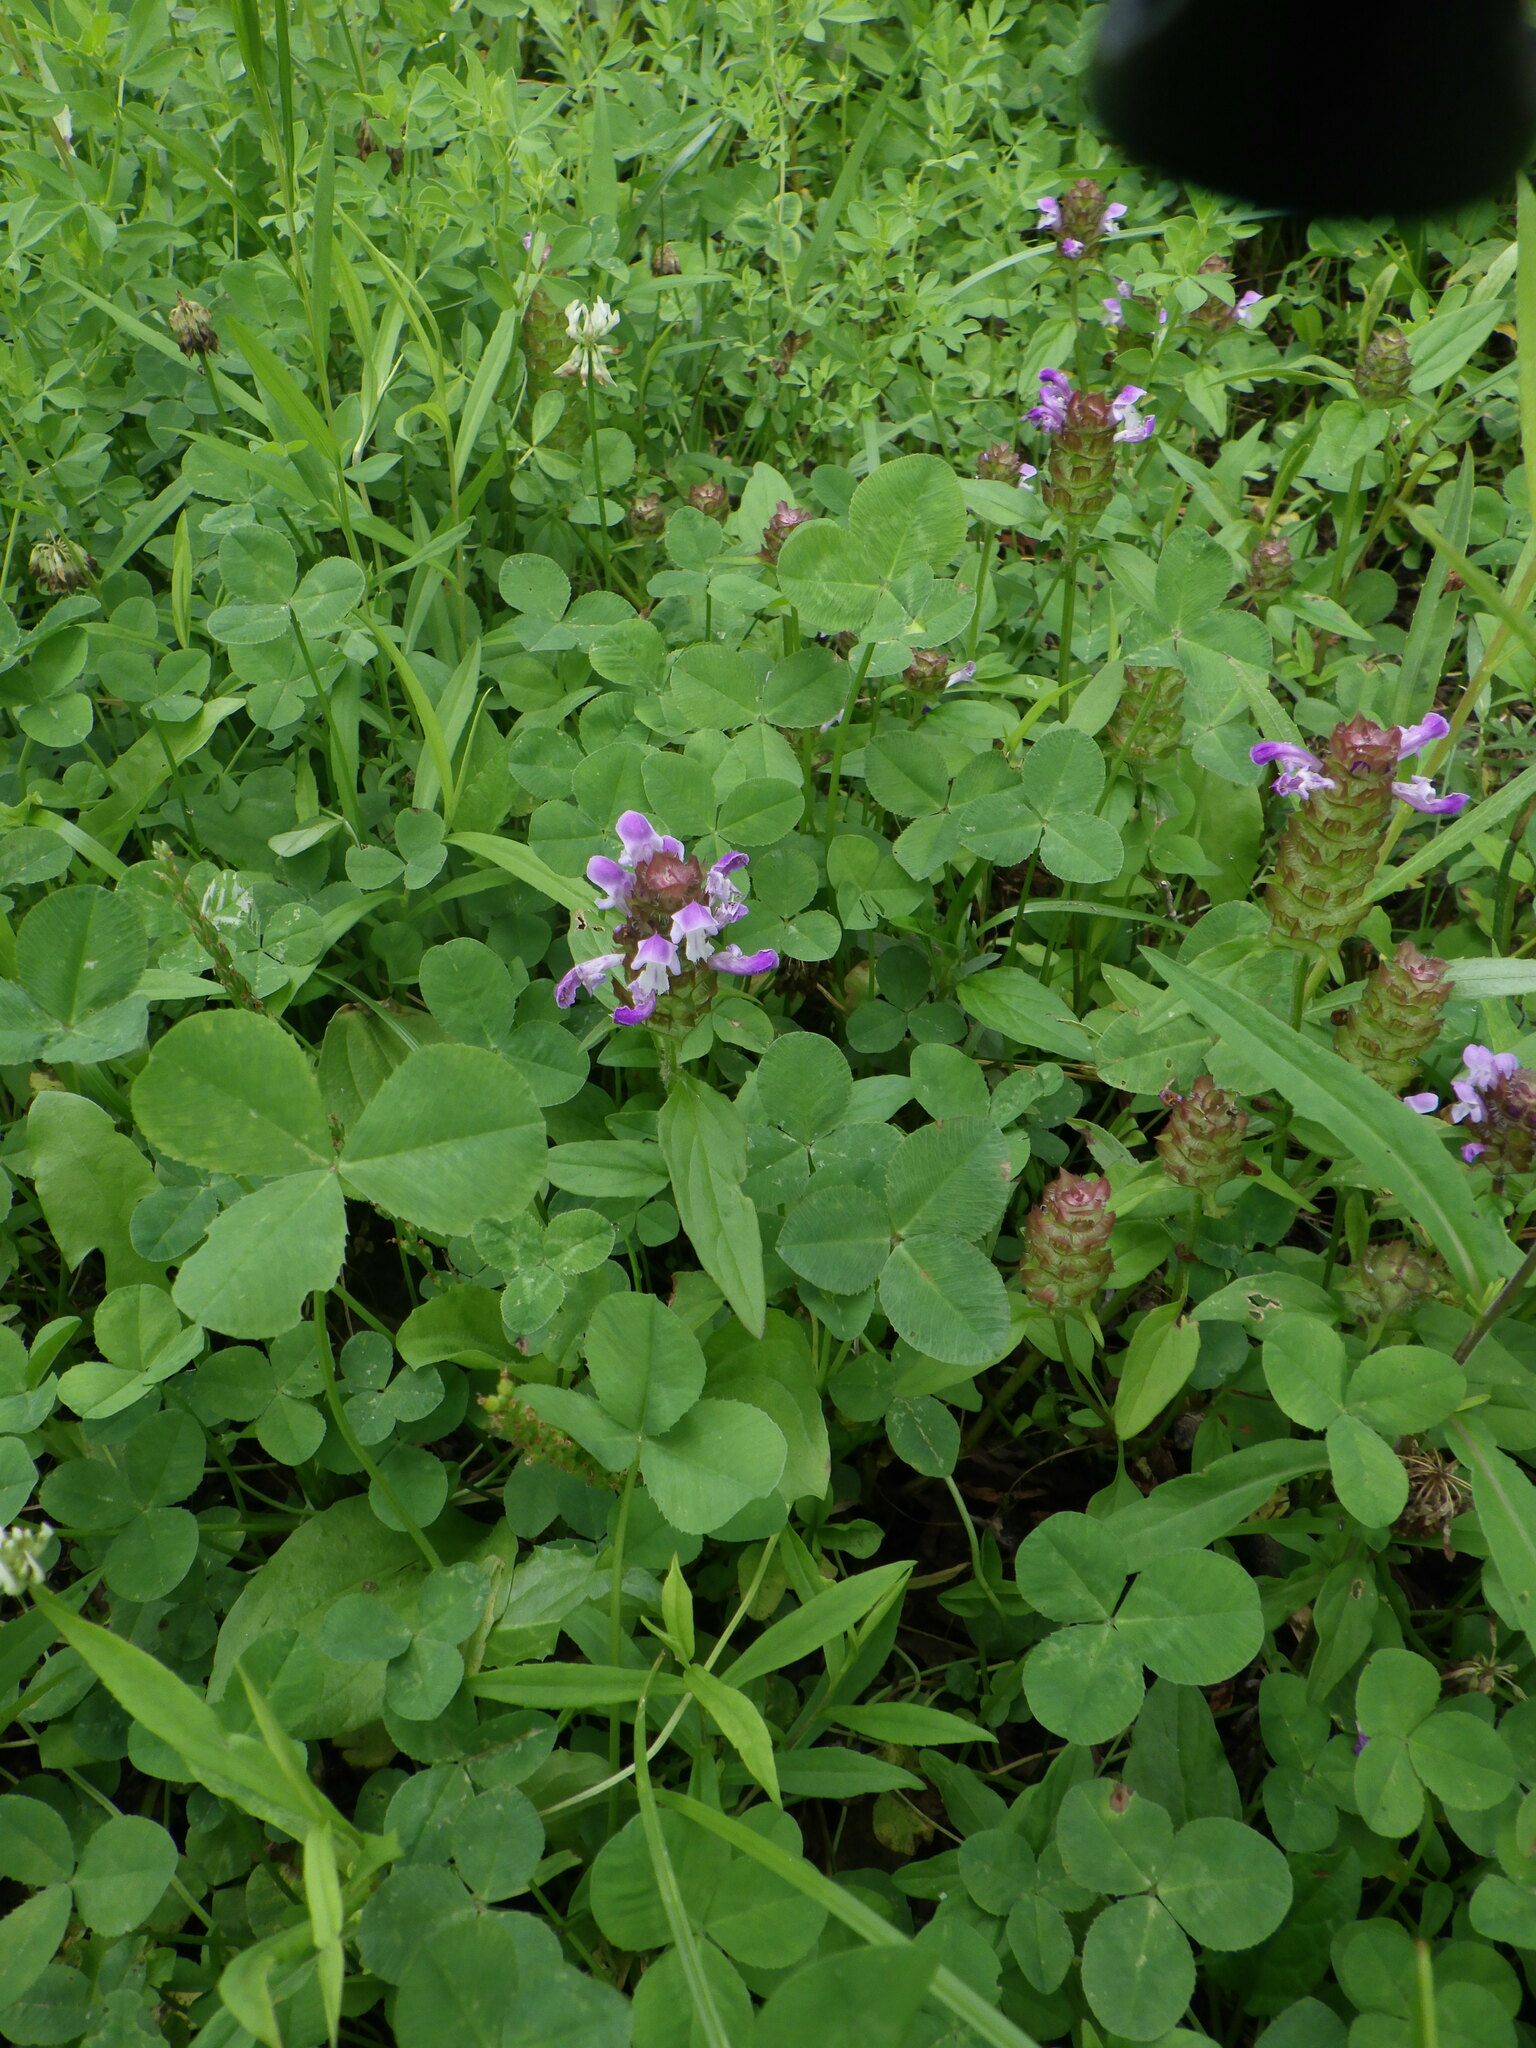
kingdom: Plantae
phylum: Tracheophyta
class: Magnoliopsida
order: Lamiales
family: Lamiaceae
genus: Prunella
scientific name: Prunella vulgaris
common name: Heal-all
